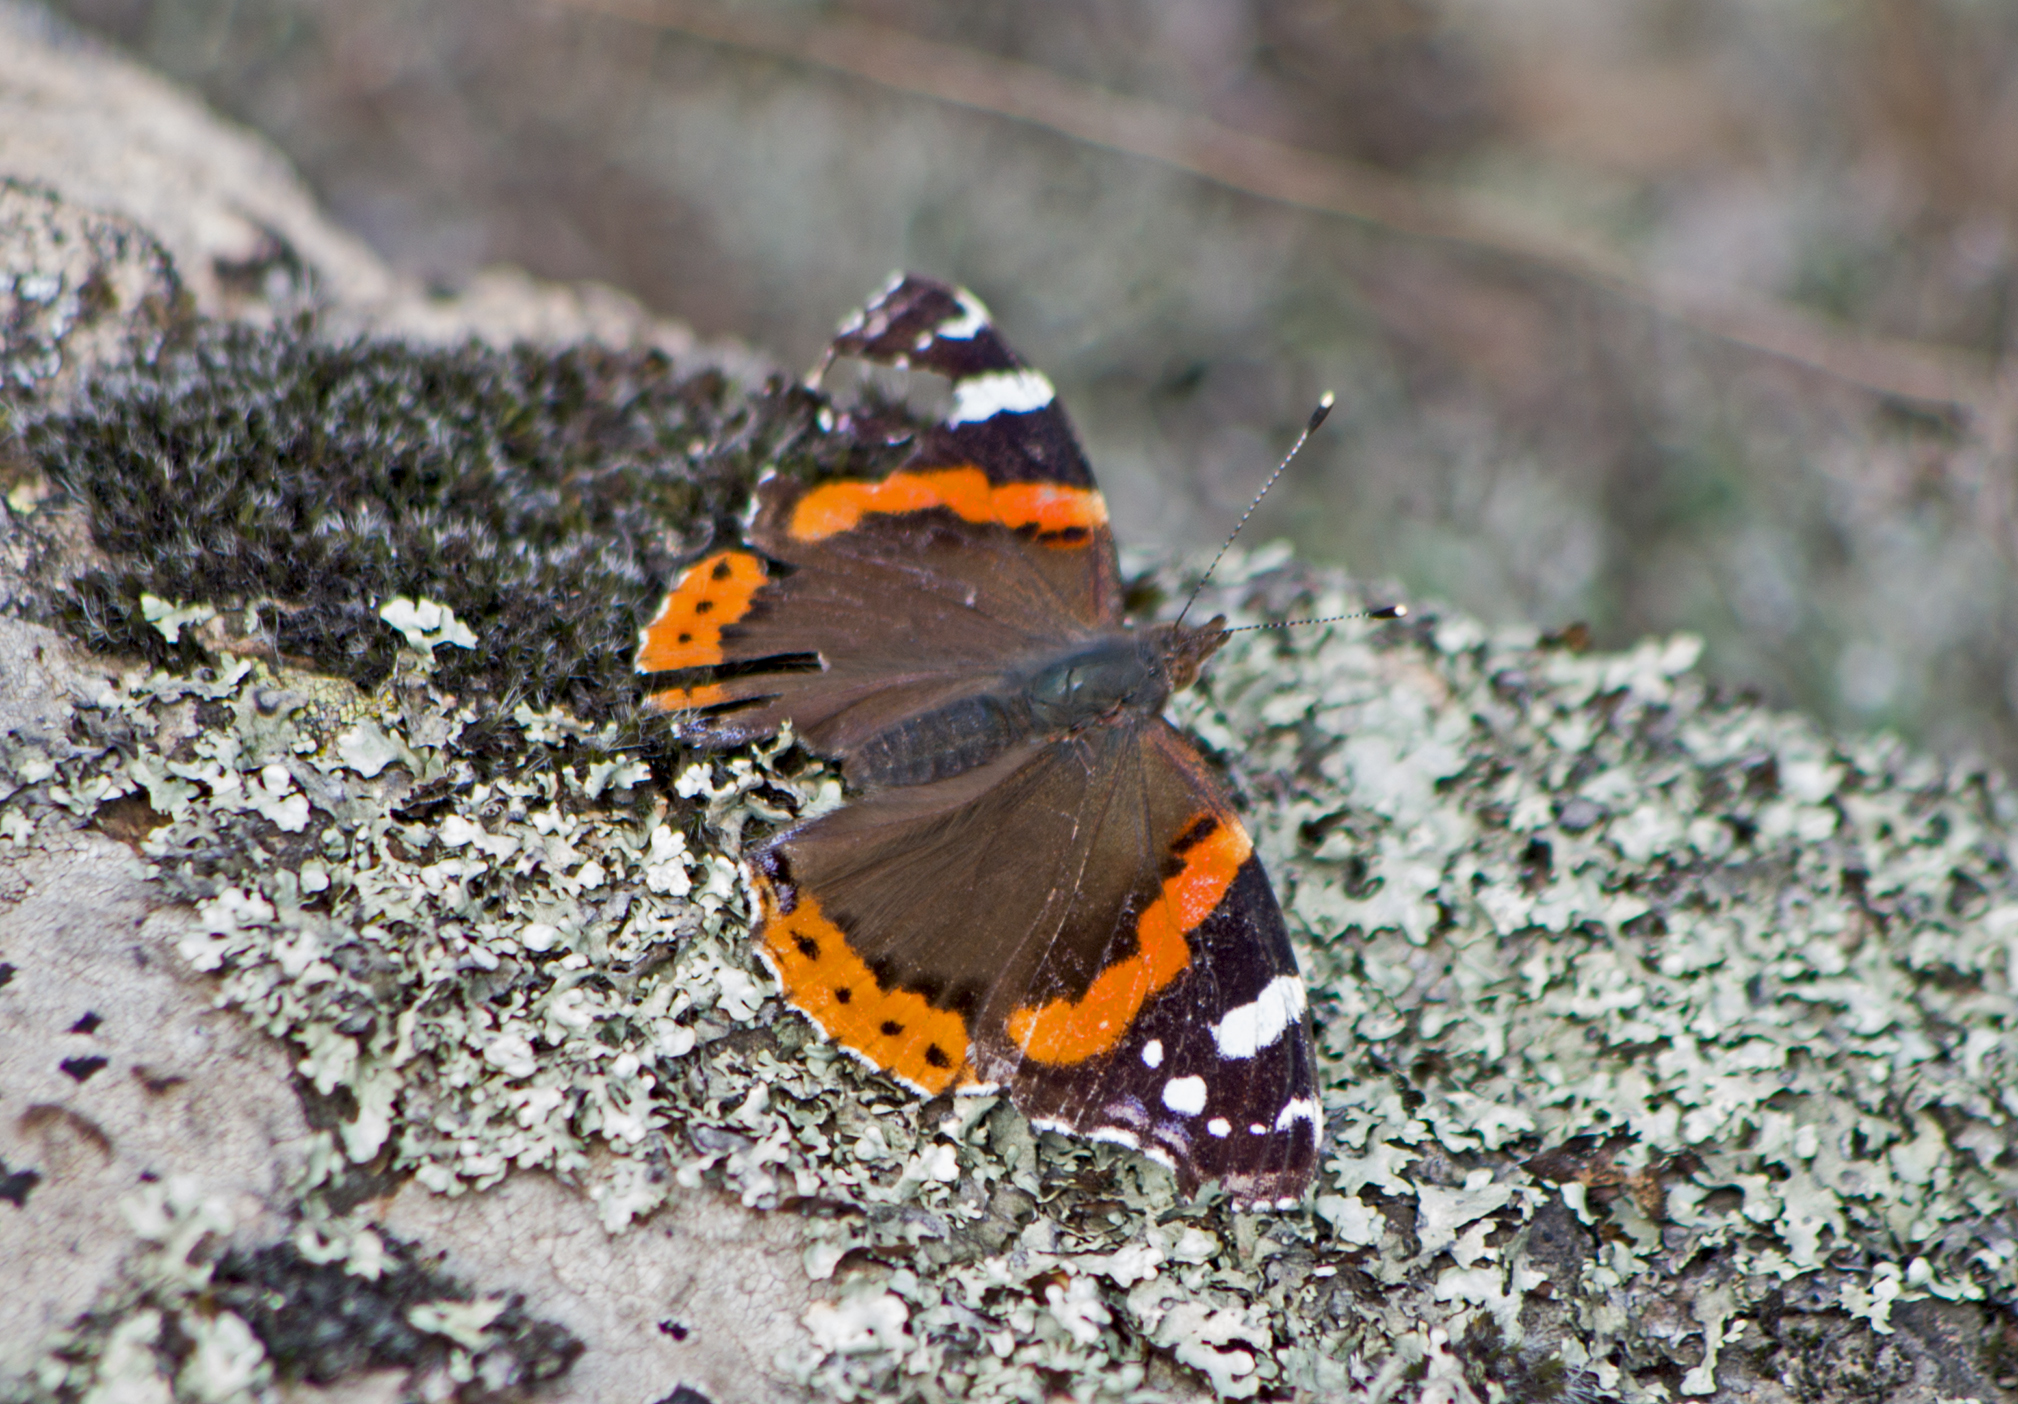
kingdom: Animalia
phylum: Arthropoda
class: Insecta
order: Lepidoptera
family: Nymphalidae
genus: Vanessa
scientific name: Vanessa atalanta
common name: Red admiral
